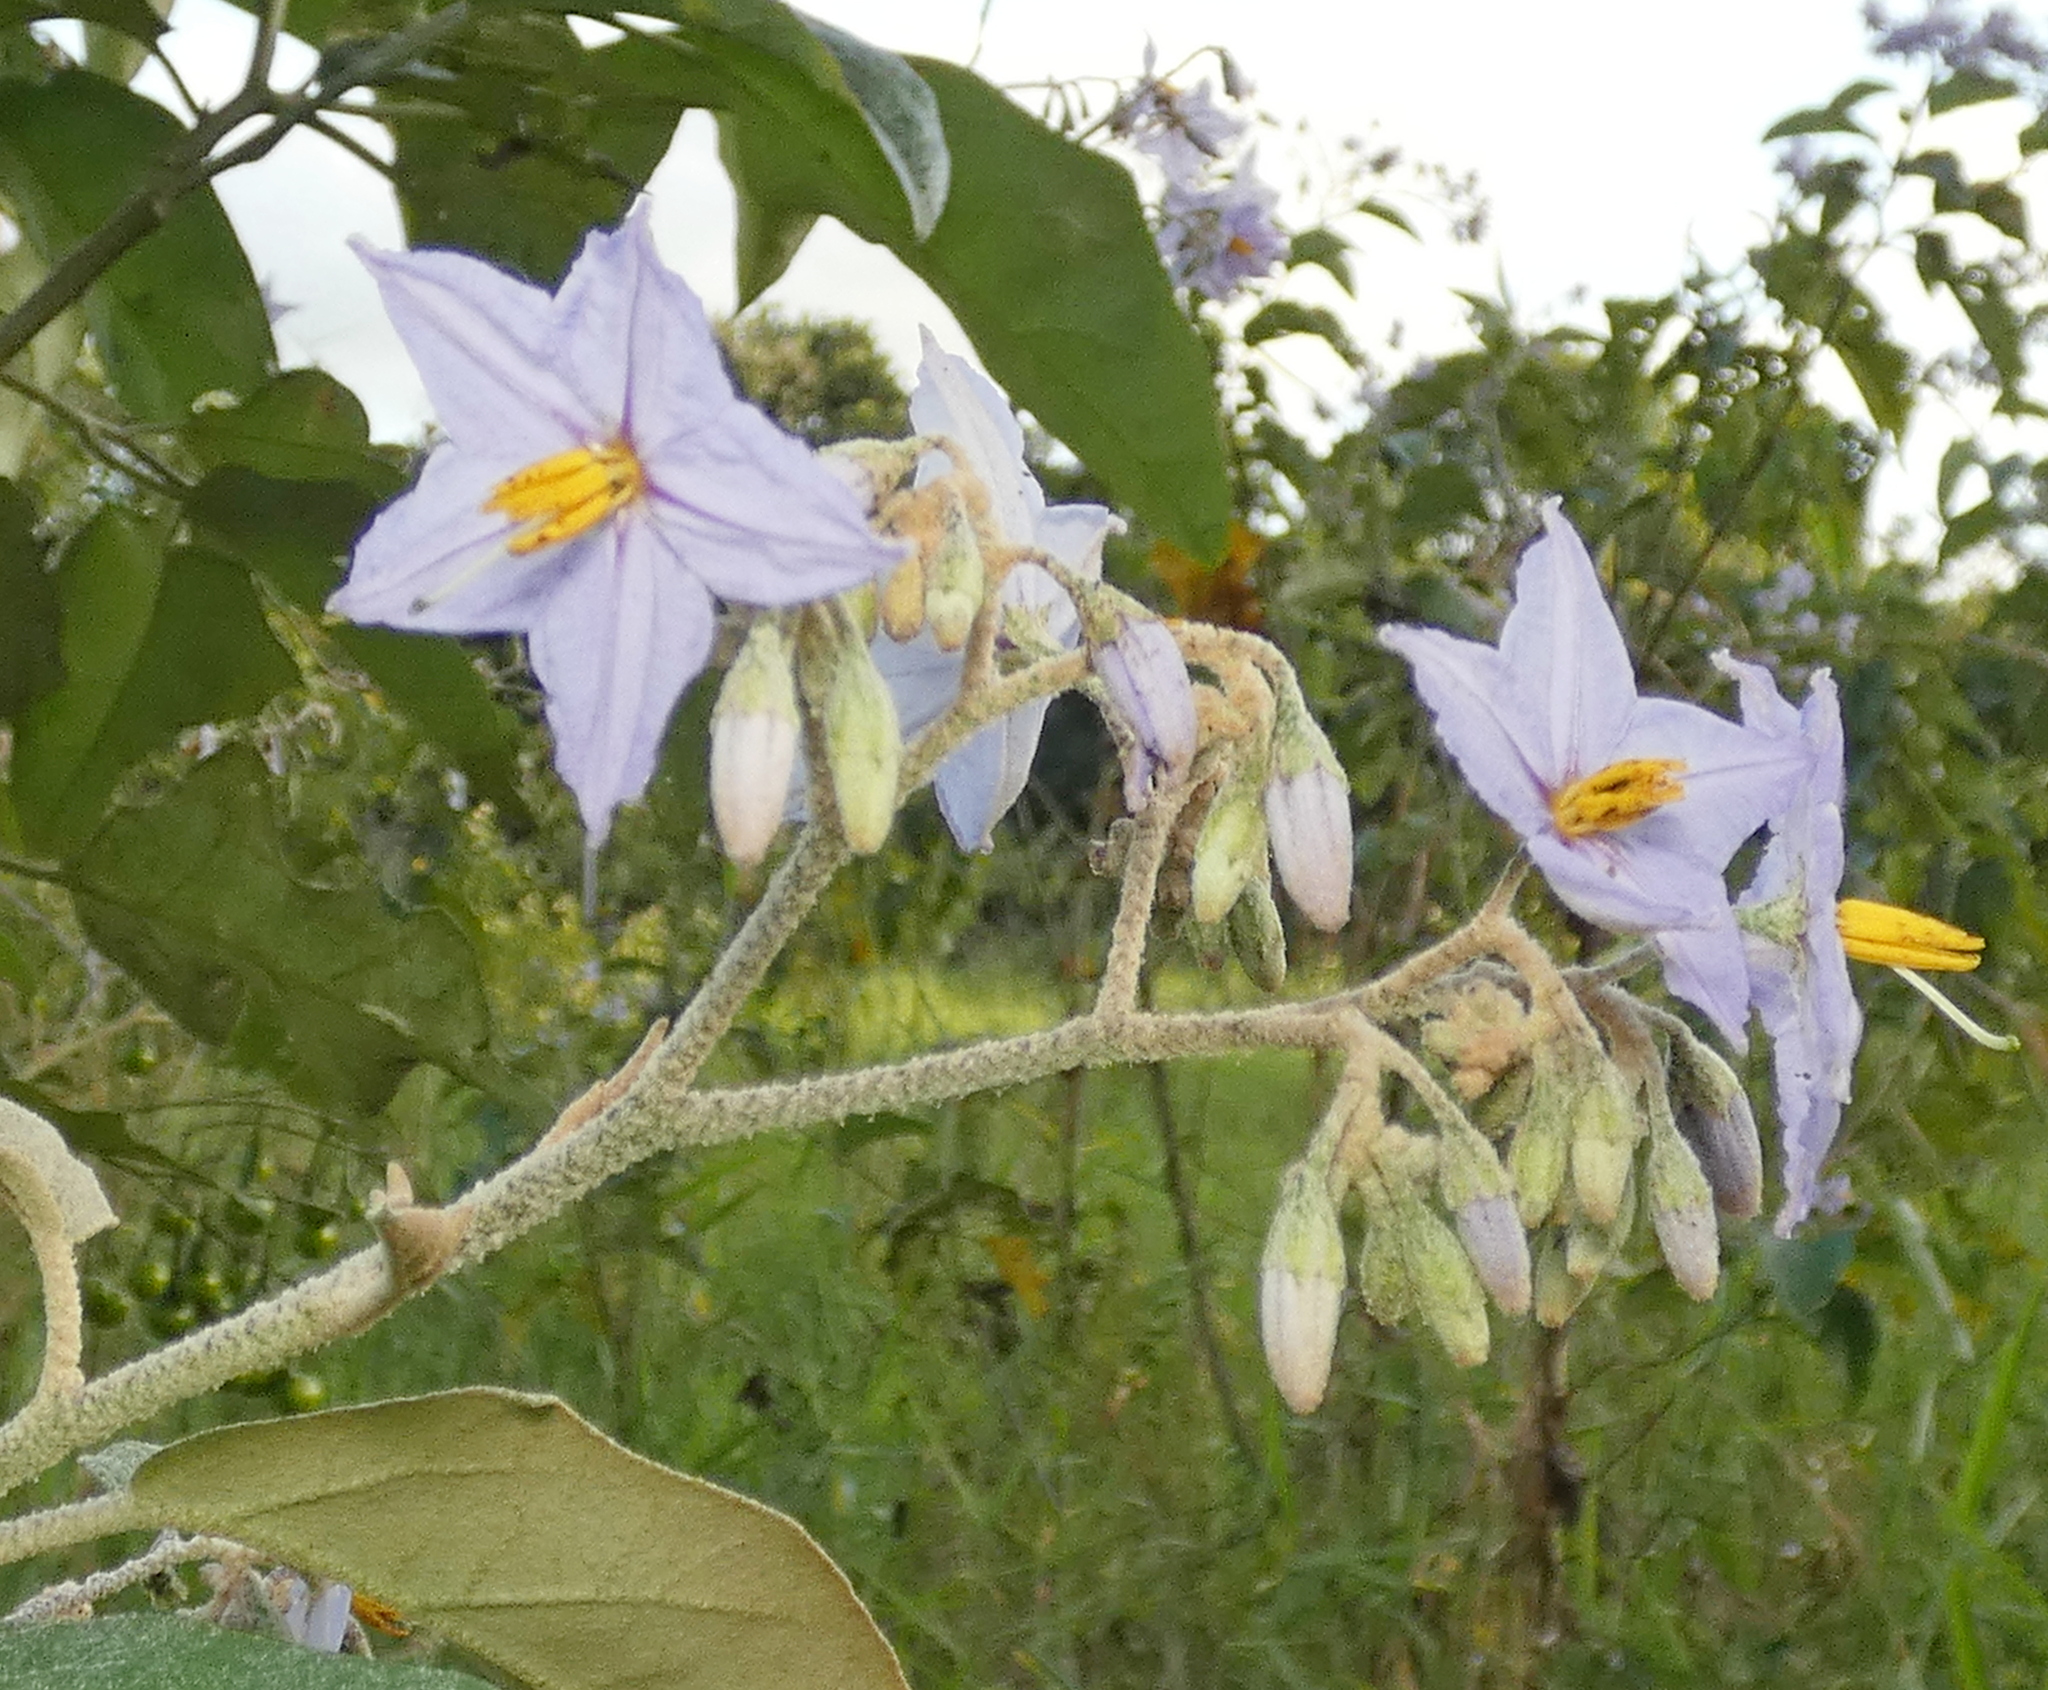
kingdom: Plantae
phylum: Tracheophyta
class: Magnoliopsida
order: Solanales
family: Solanaceae
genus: Solanum
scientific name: Solanum paniculatum
